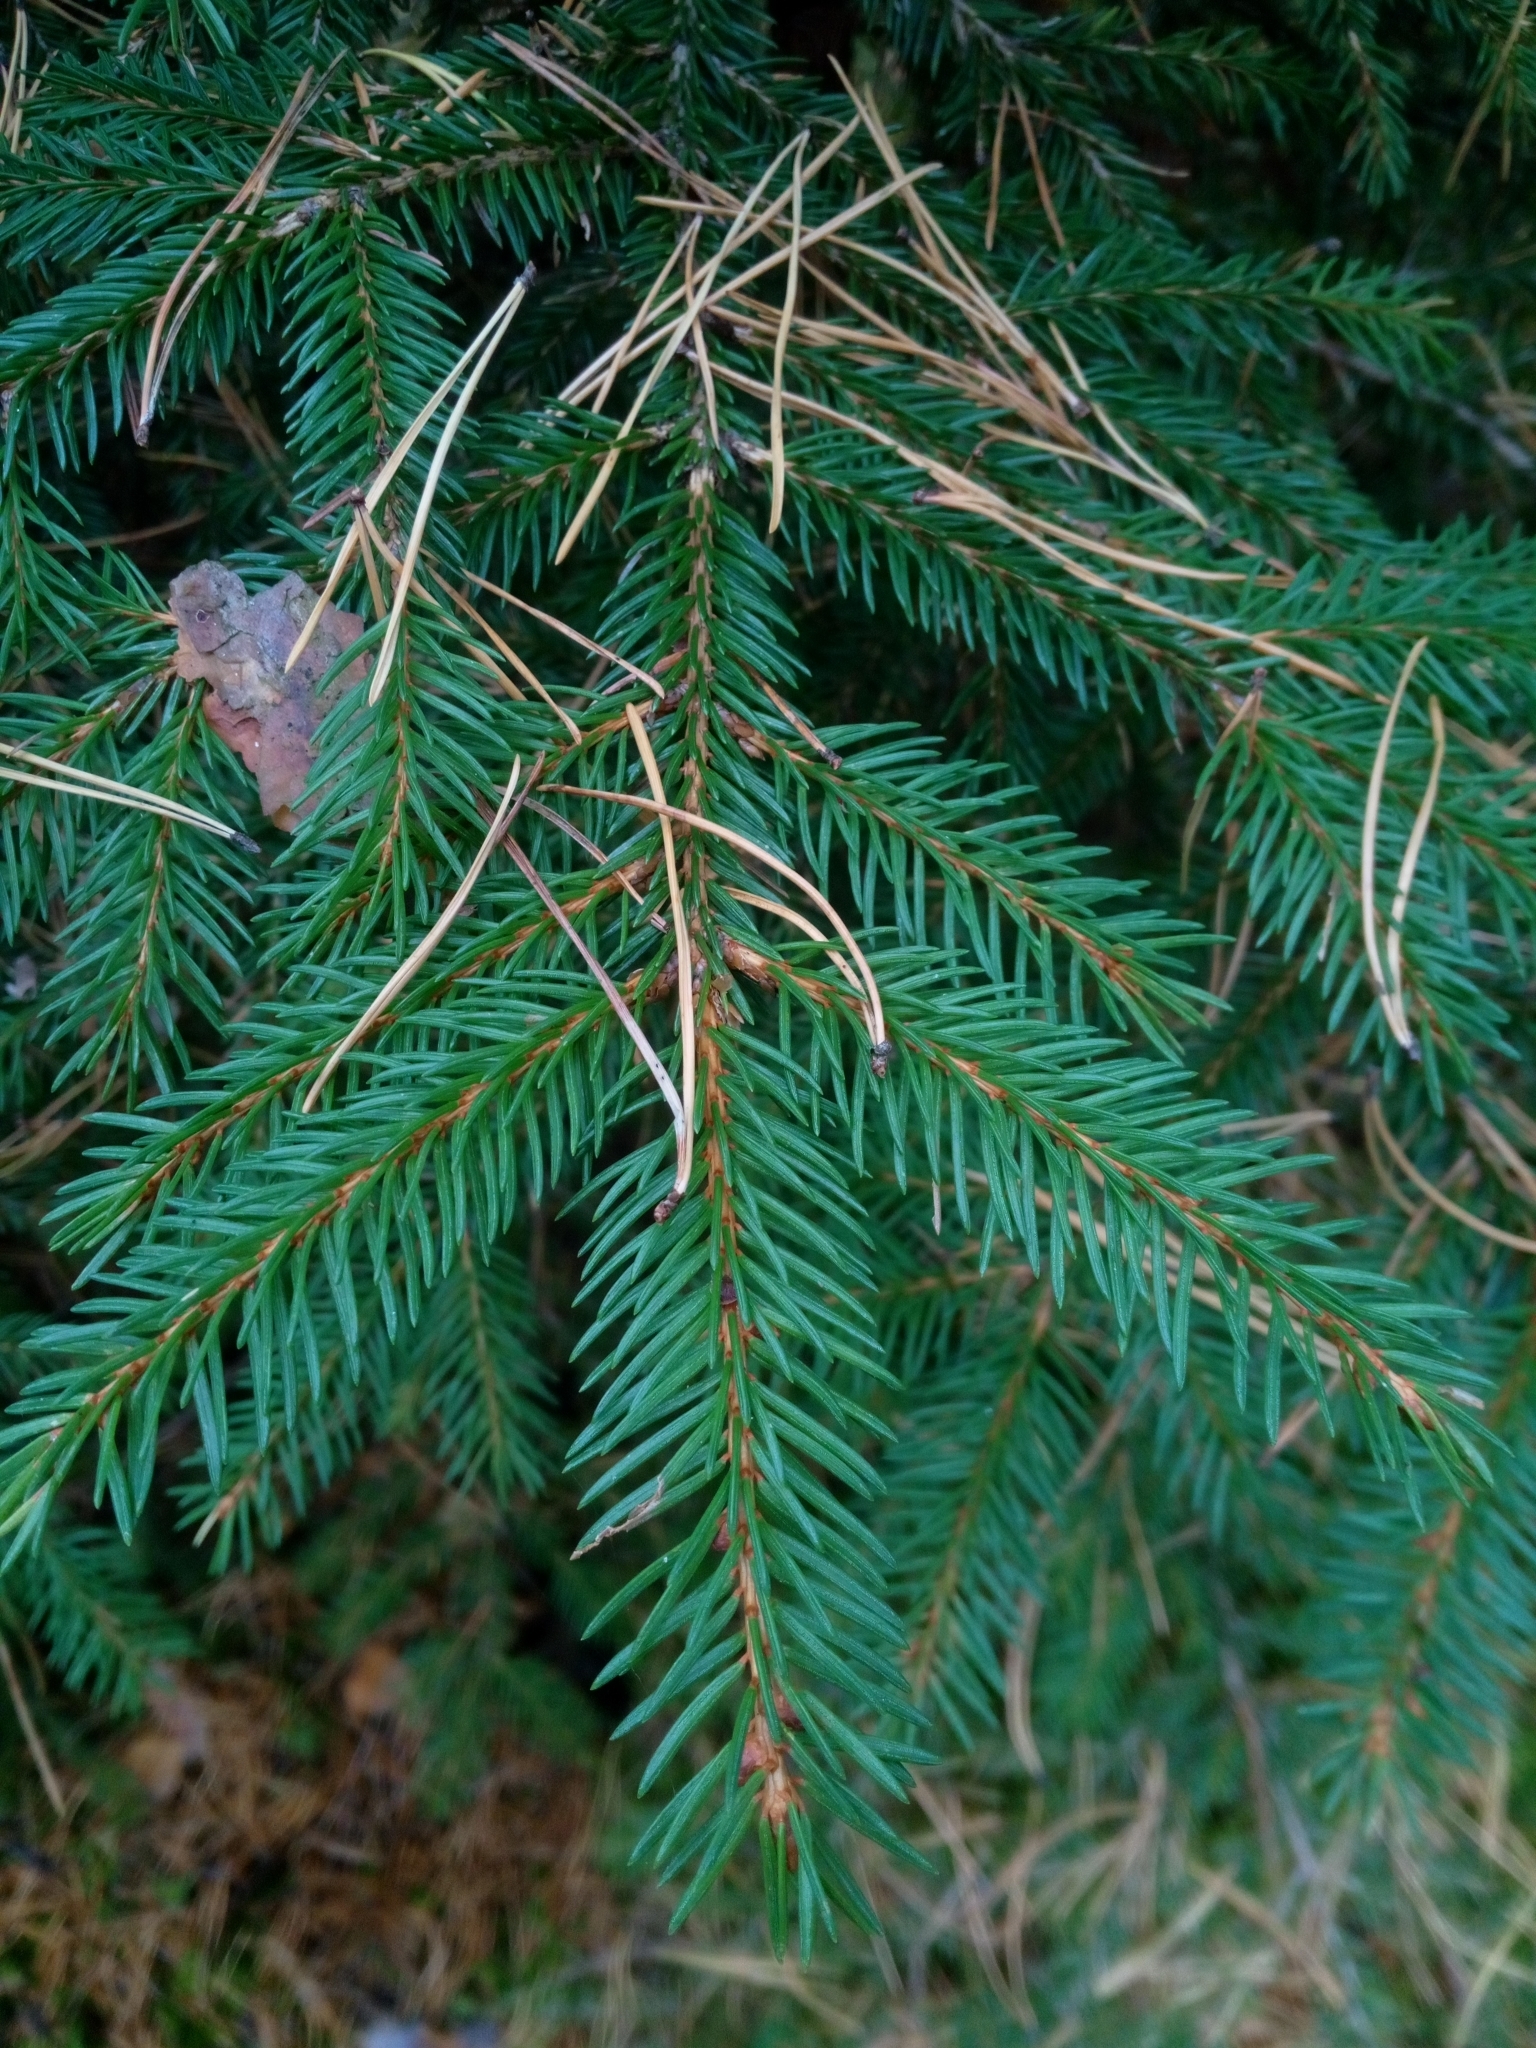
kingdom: Plantae
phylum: Tracheophyta
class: Pinopsida
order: Pinales
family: Pinaceae
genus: Picea
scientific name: Picea abies
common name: Norway spruce
